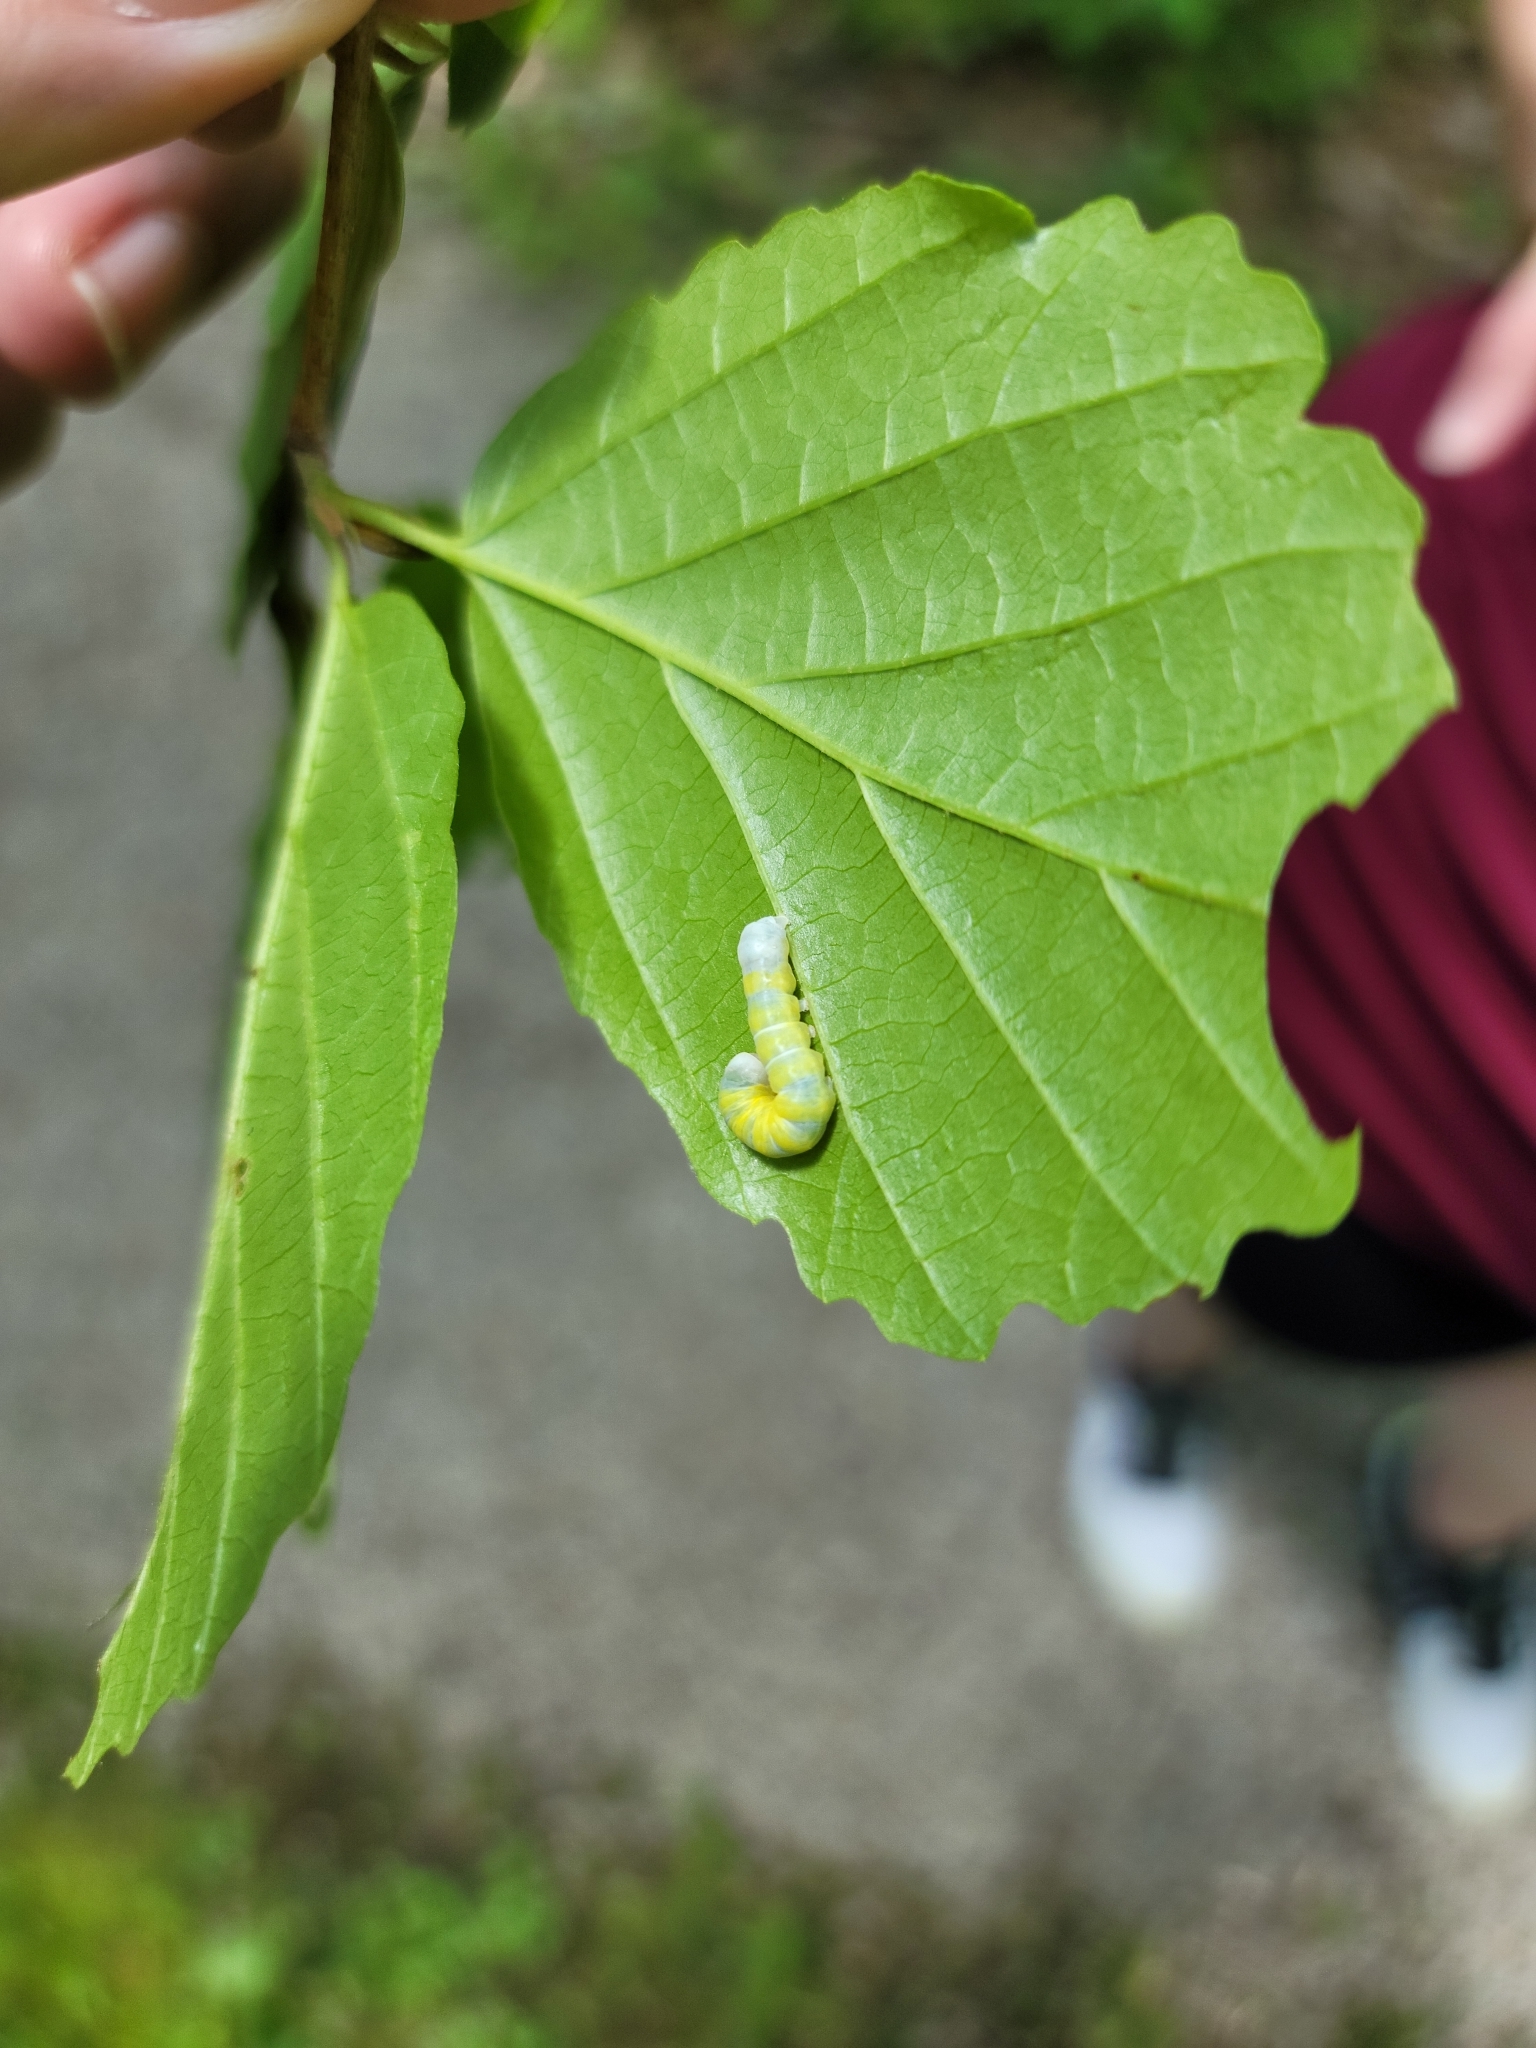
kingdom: Animalia
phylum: Arthropoda
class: Insecta
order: Lepidoptera
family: Noctuidae
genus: Pyreferra
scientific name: Pyreferra
